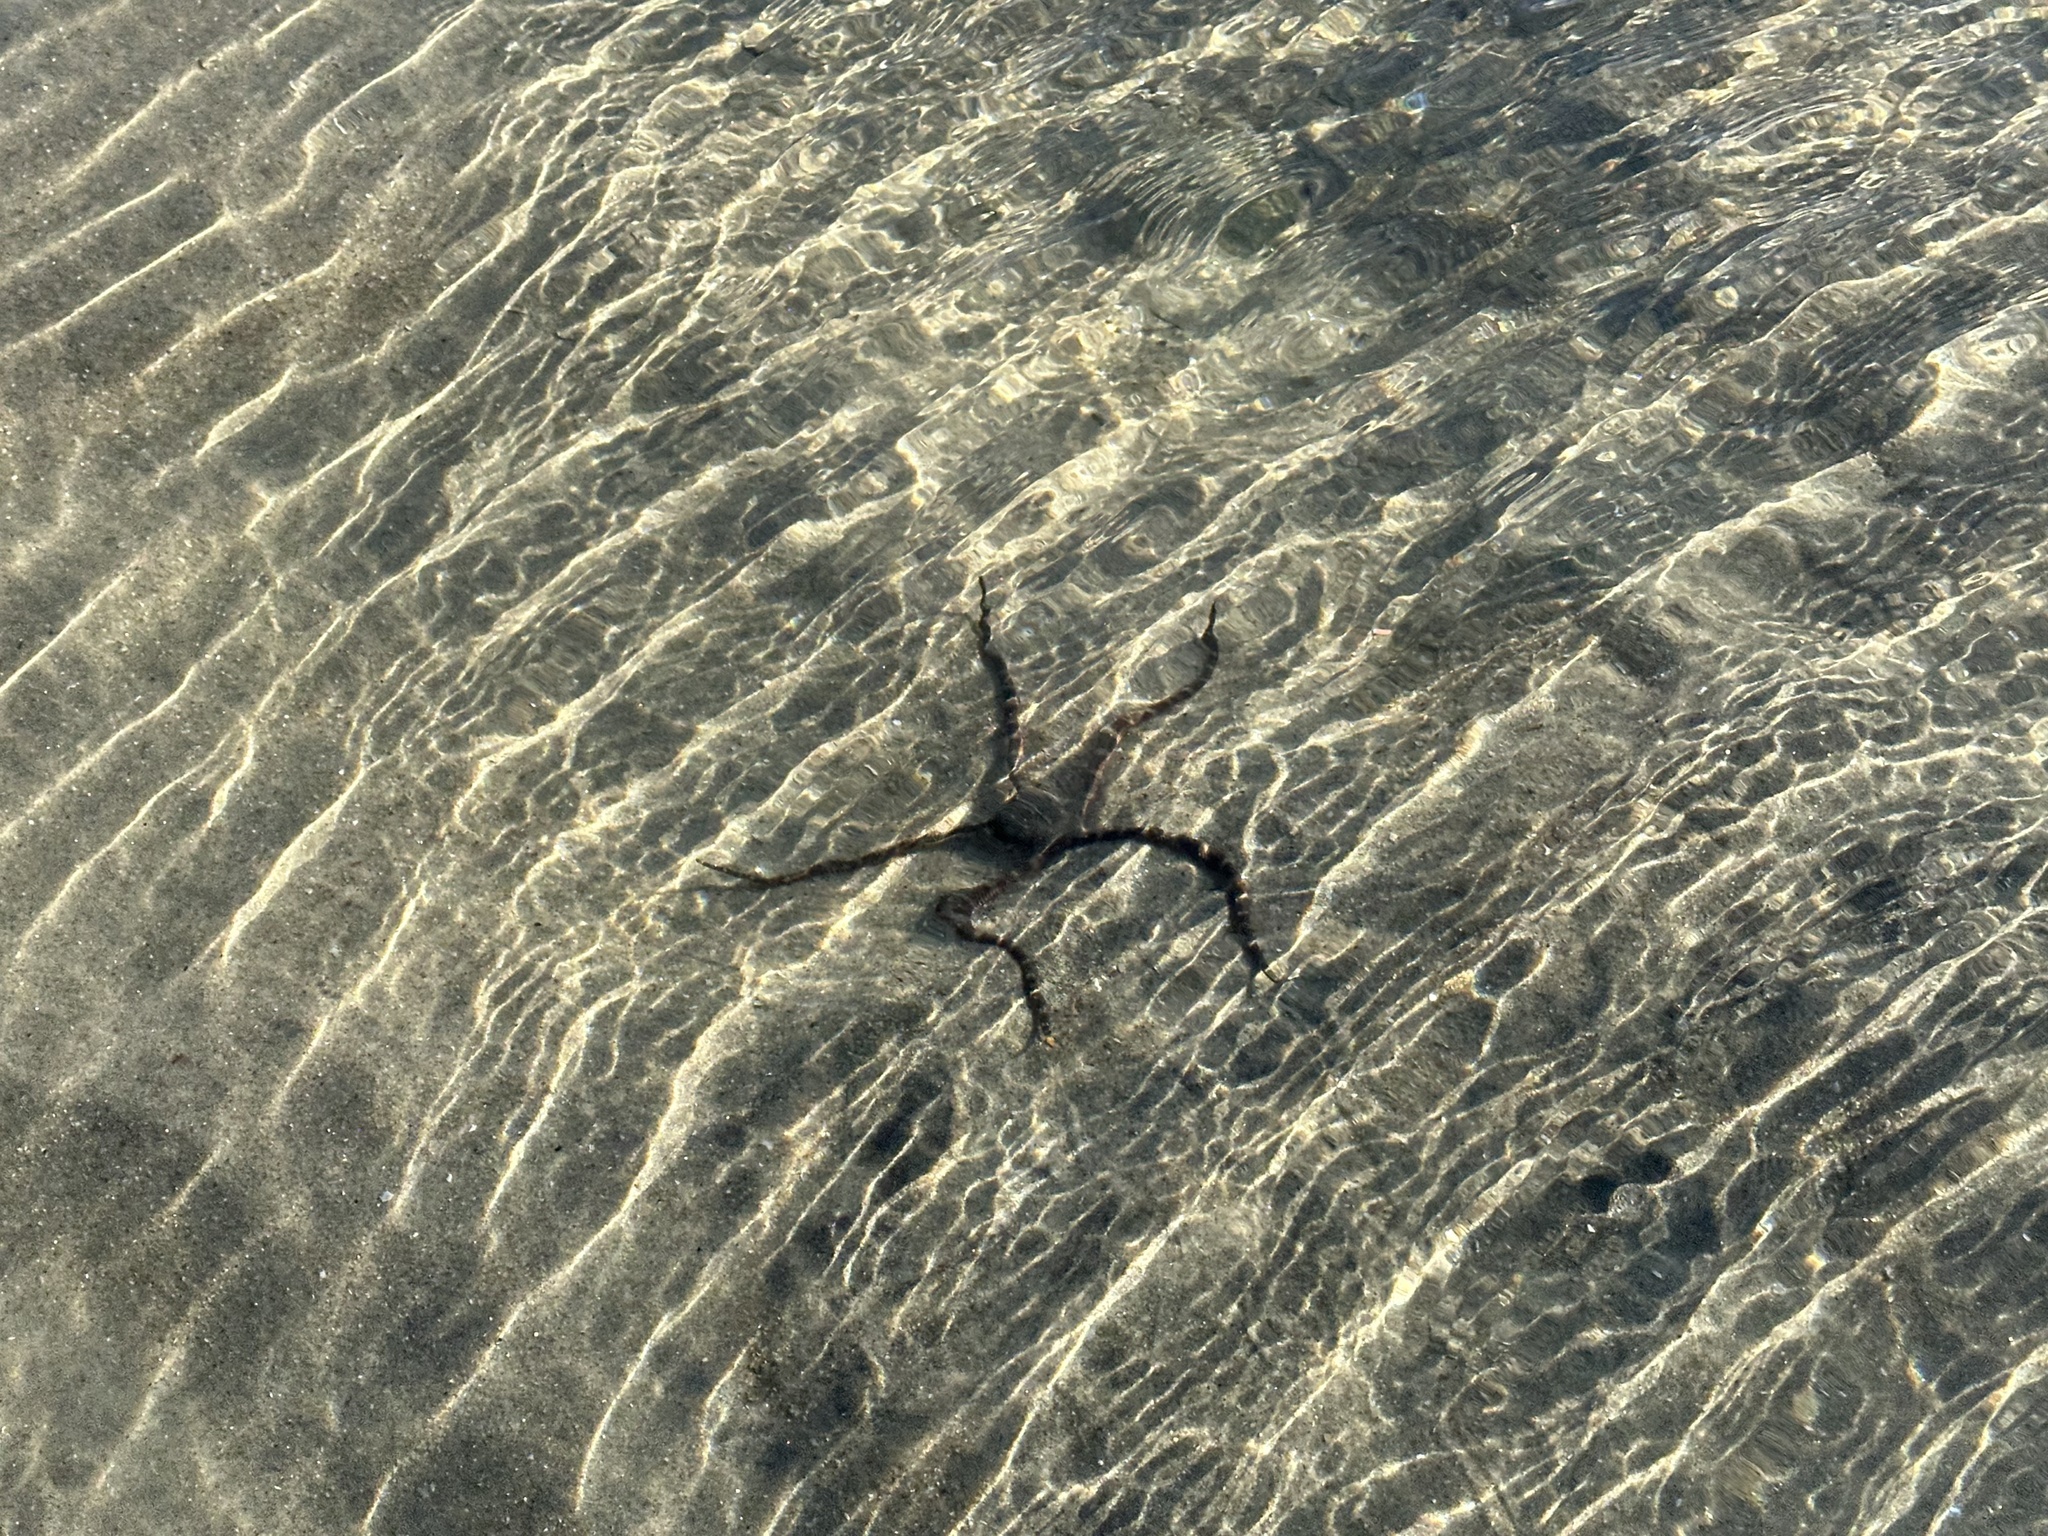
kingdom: Animalia
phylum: Echinodermata
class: Ophiuroidea
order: Ophiacanthida
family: Ophiodermatidae
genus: Ophioderma
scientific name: Ophioderma panamense
